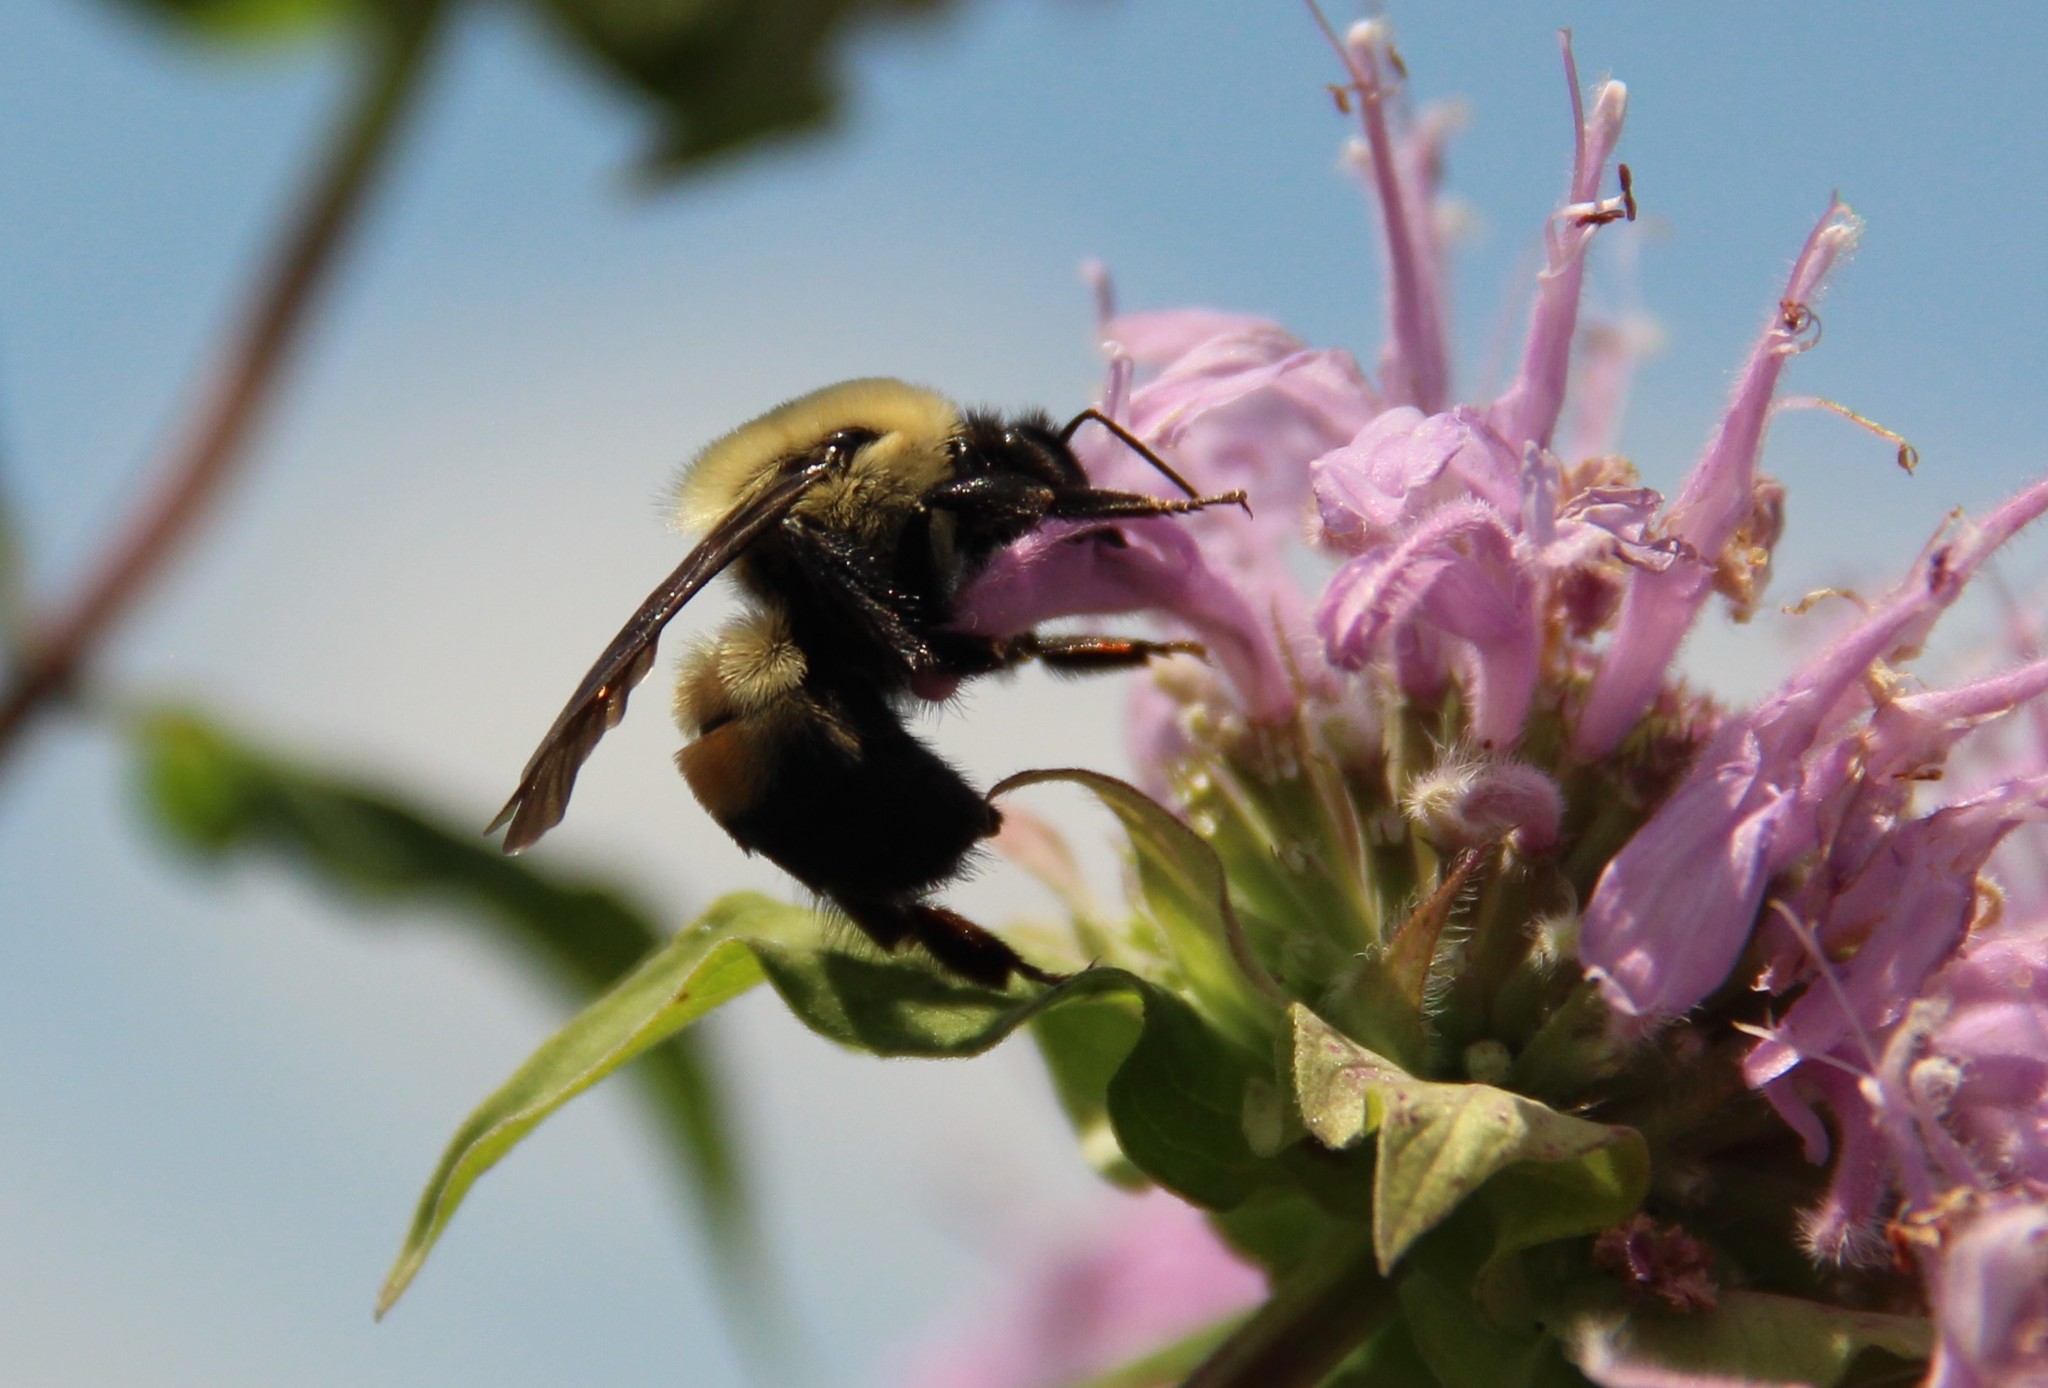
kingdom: Animalia
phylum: Arthropoda
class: Insecta
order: Hymenoptera
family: Apidae
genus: Bombus
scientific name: Bombus griseocollis
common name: Brown-belted bumble bee
